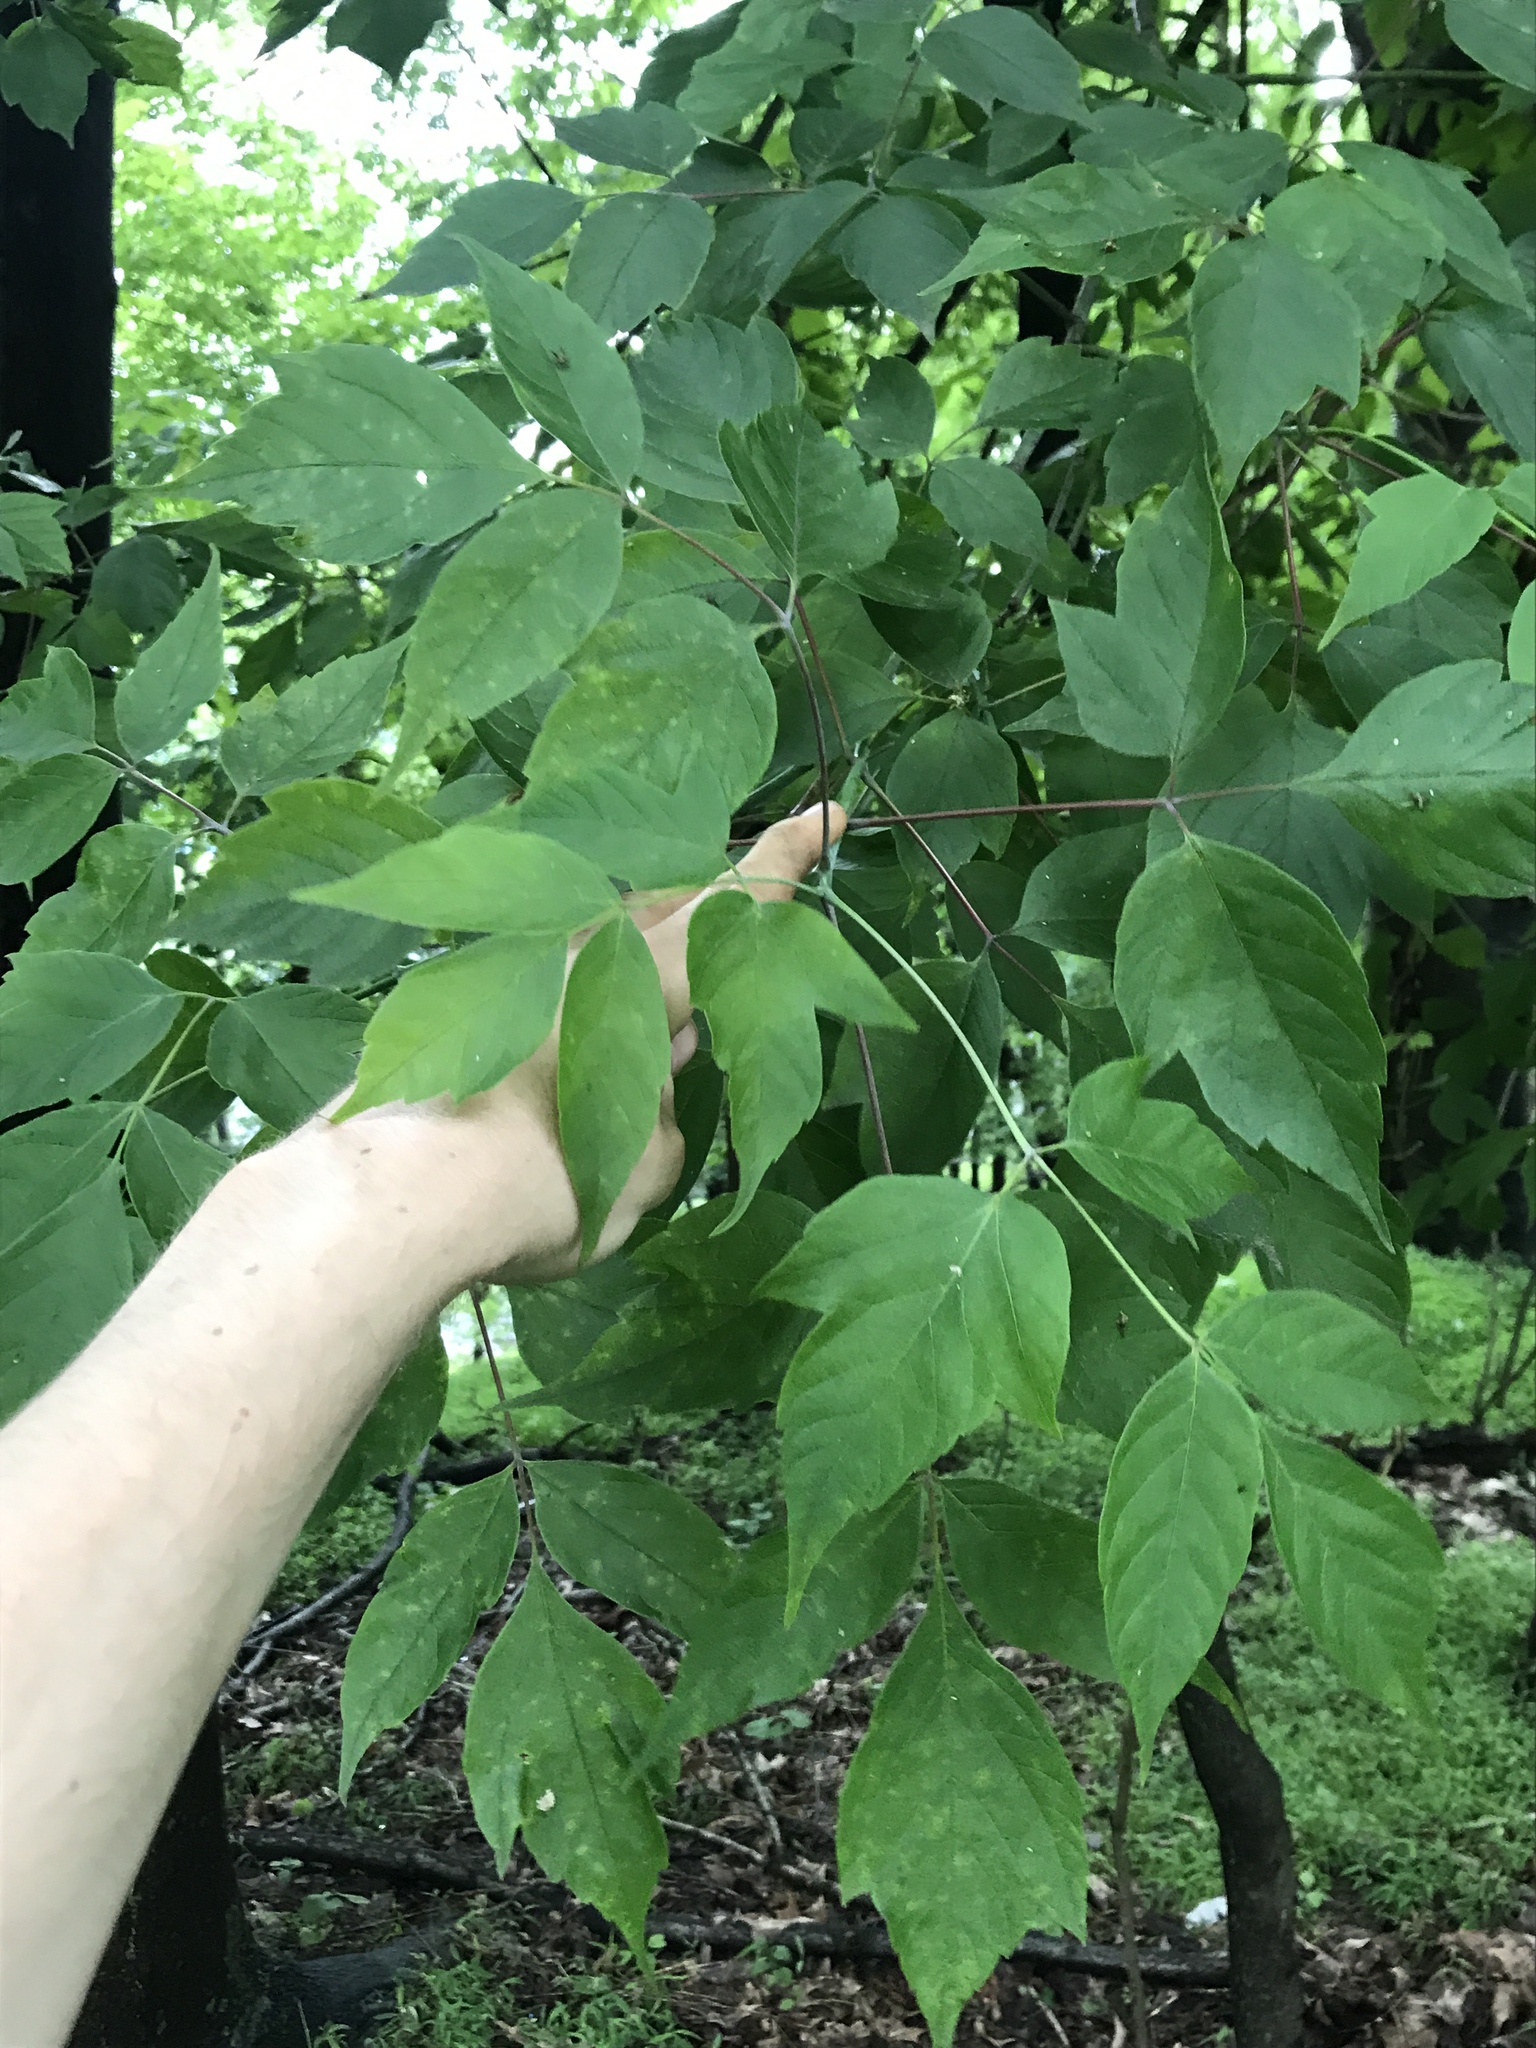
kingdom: Plantae
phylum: Tracheophyta
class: Magnoliopsida
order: Sapindales
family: Sapindaceae
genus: Acer
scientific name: Acer negundo
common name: Ashleaf maple
